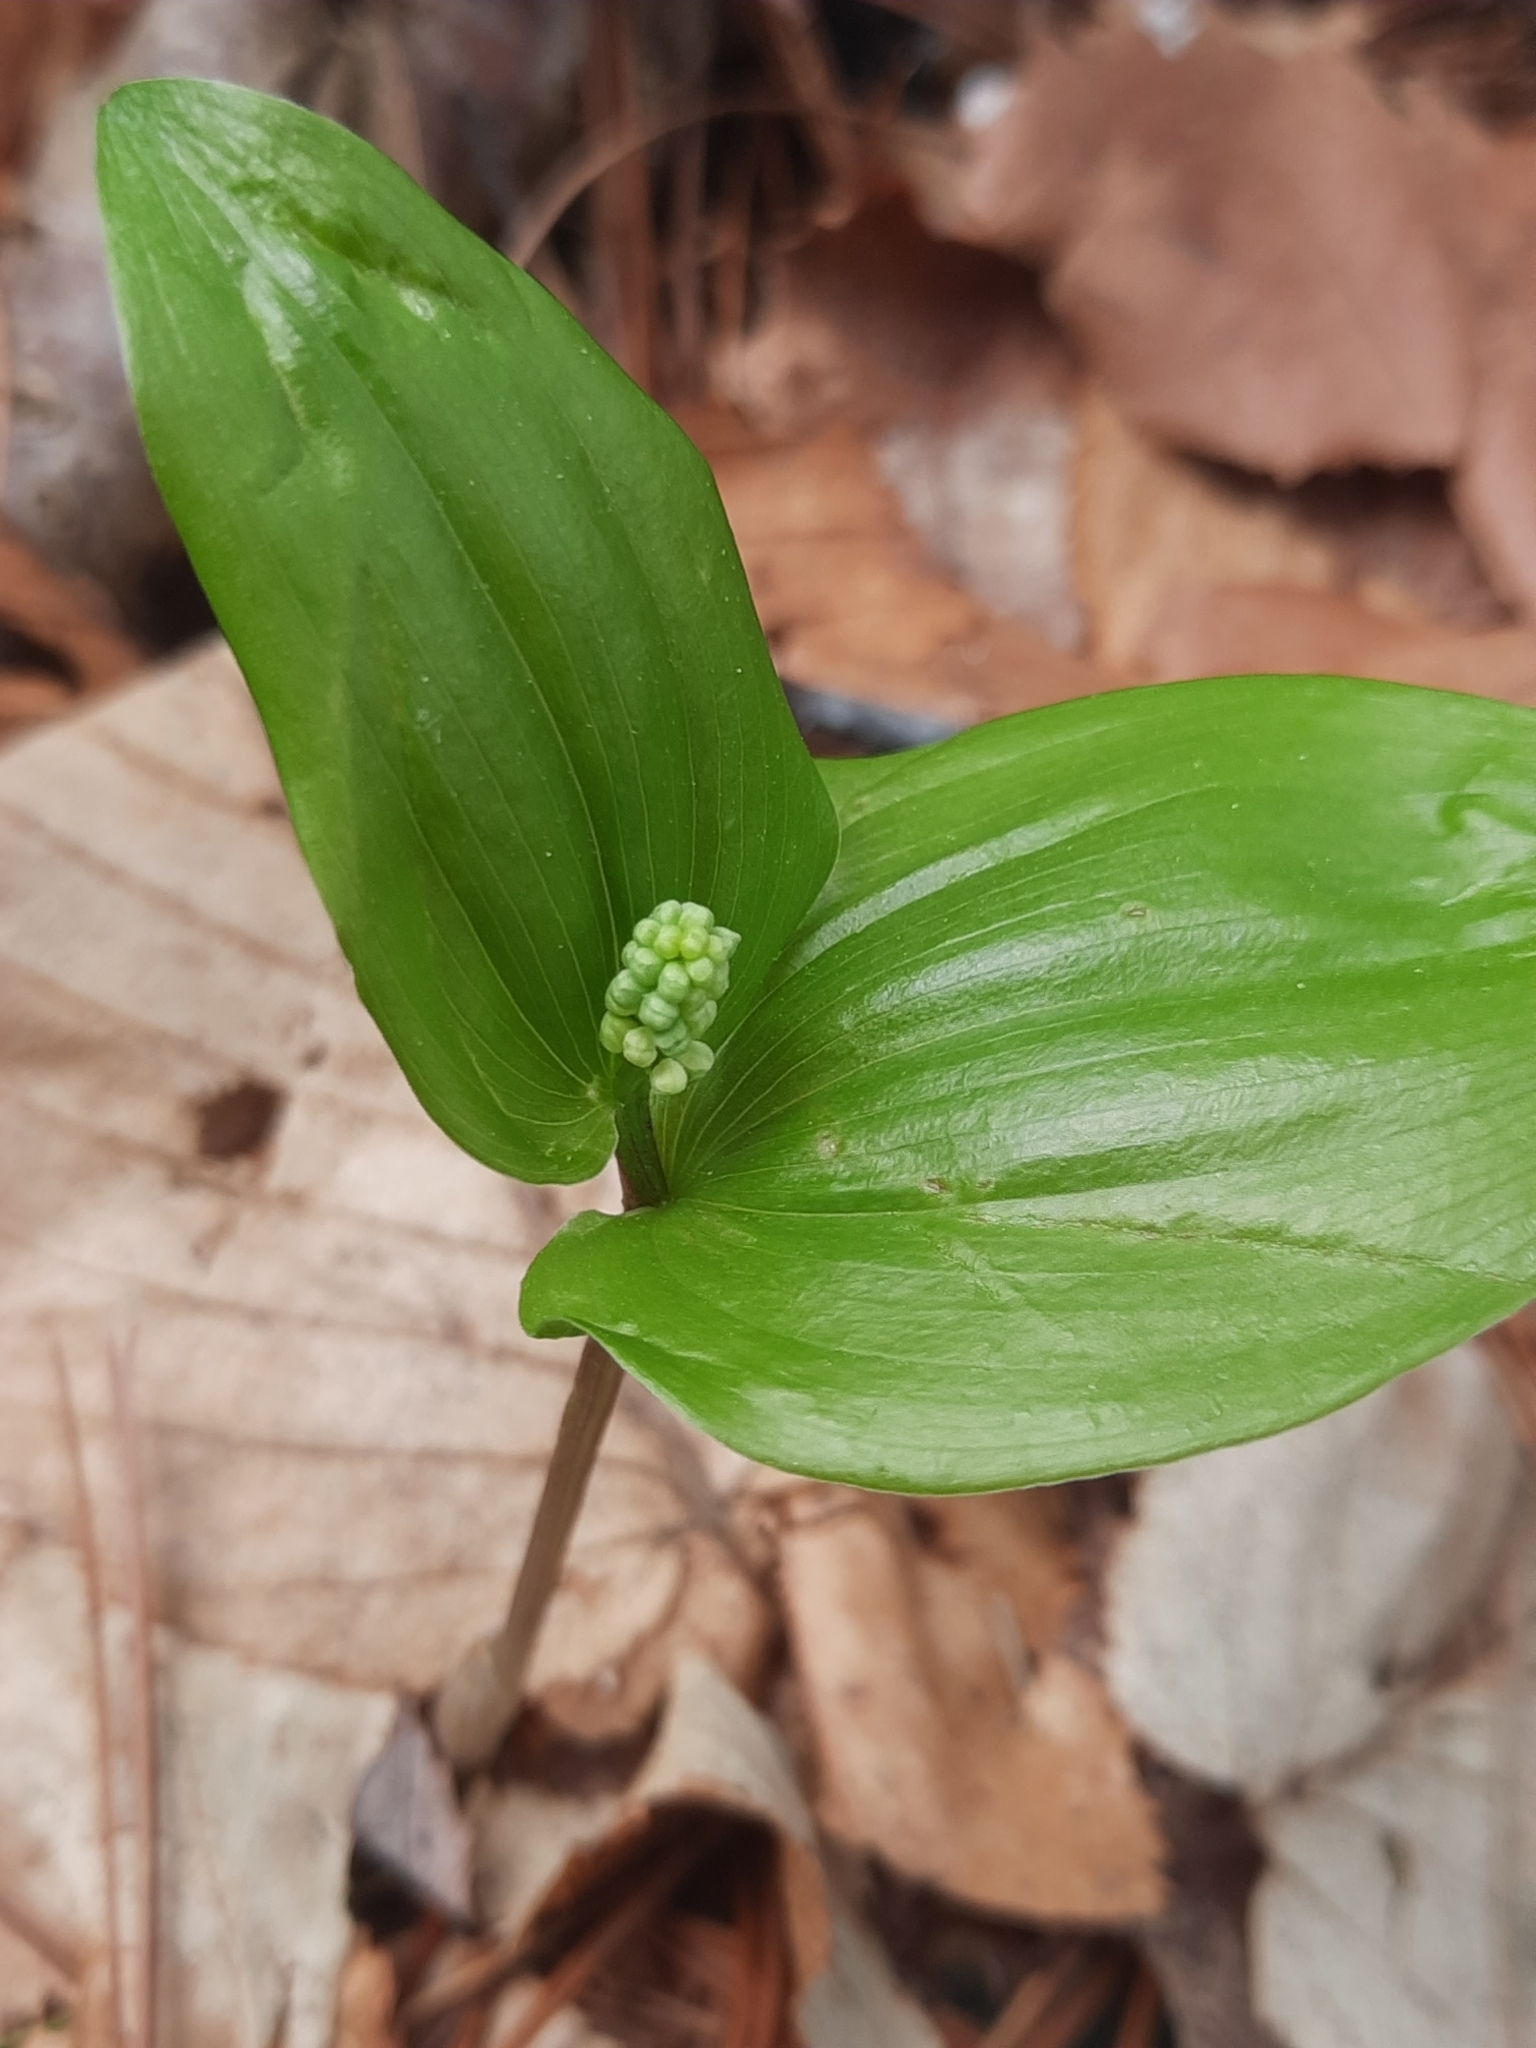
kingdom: Plantae
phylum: Tracheophyta
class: Liliopsida
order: Asparagales
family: Asparagaceae
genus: Maianthemum
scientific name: Maianthemum canadense
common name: False lily-of-the-valley
